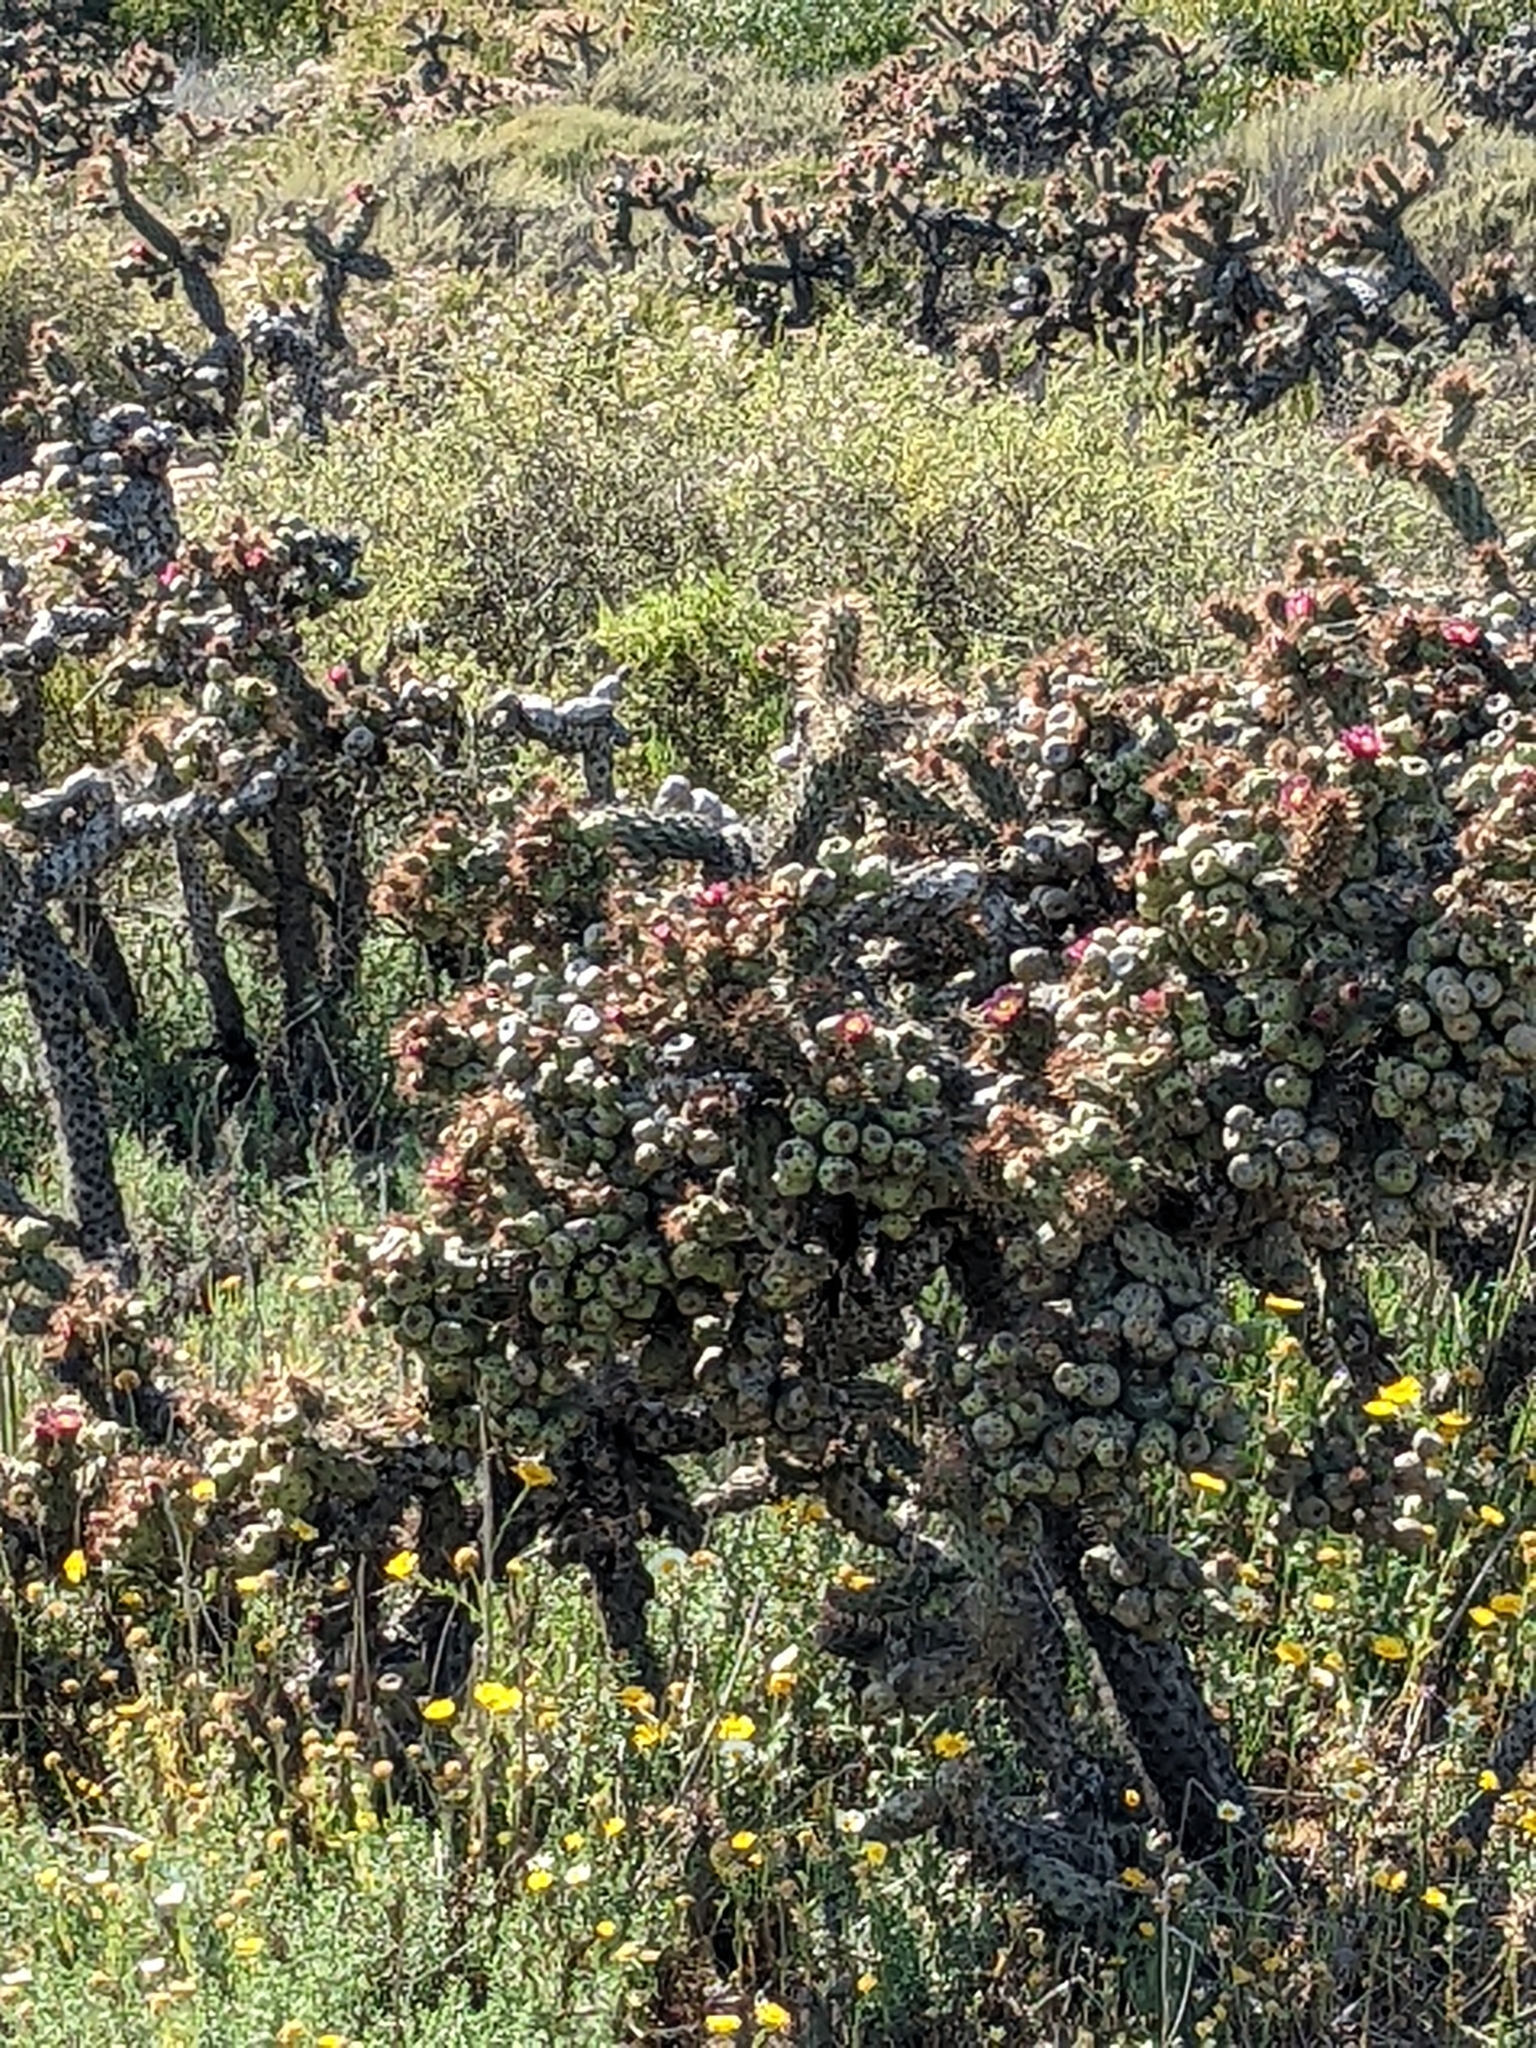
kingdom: Plantae
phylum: Tracheophyta
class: Magnoliopsida
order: Caryophyllales
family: Cactaceae
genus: Cylindropuntia
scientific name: Cylindropuntia prolifera
